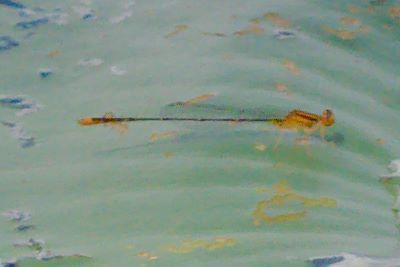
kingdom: Animalia
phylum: Arthropoda
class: Insecta
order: Odonata
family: Coenagrionidae
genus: Enallagma
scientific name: Enallagma pollutum
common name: Florida bluet
